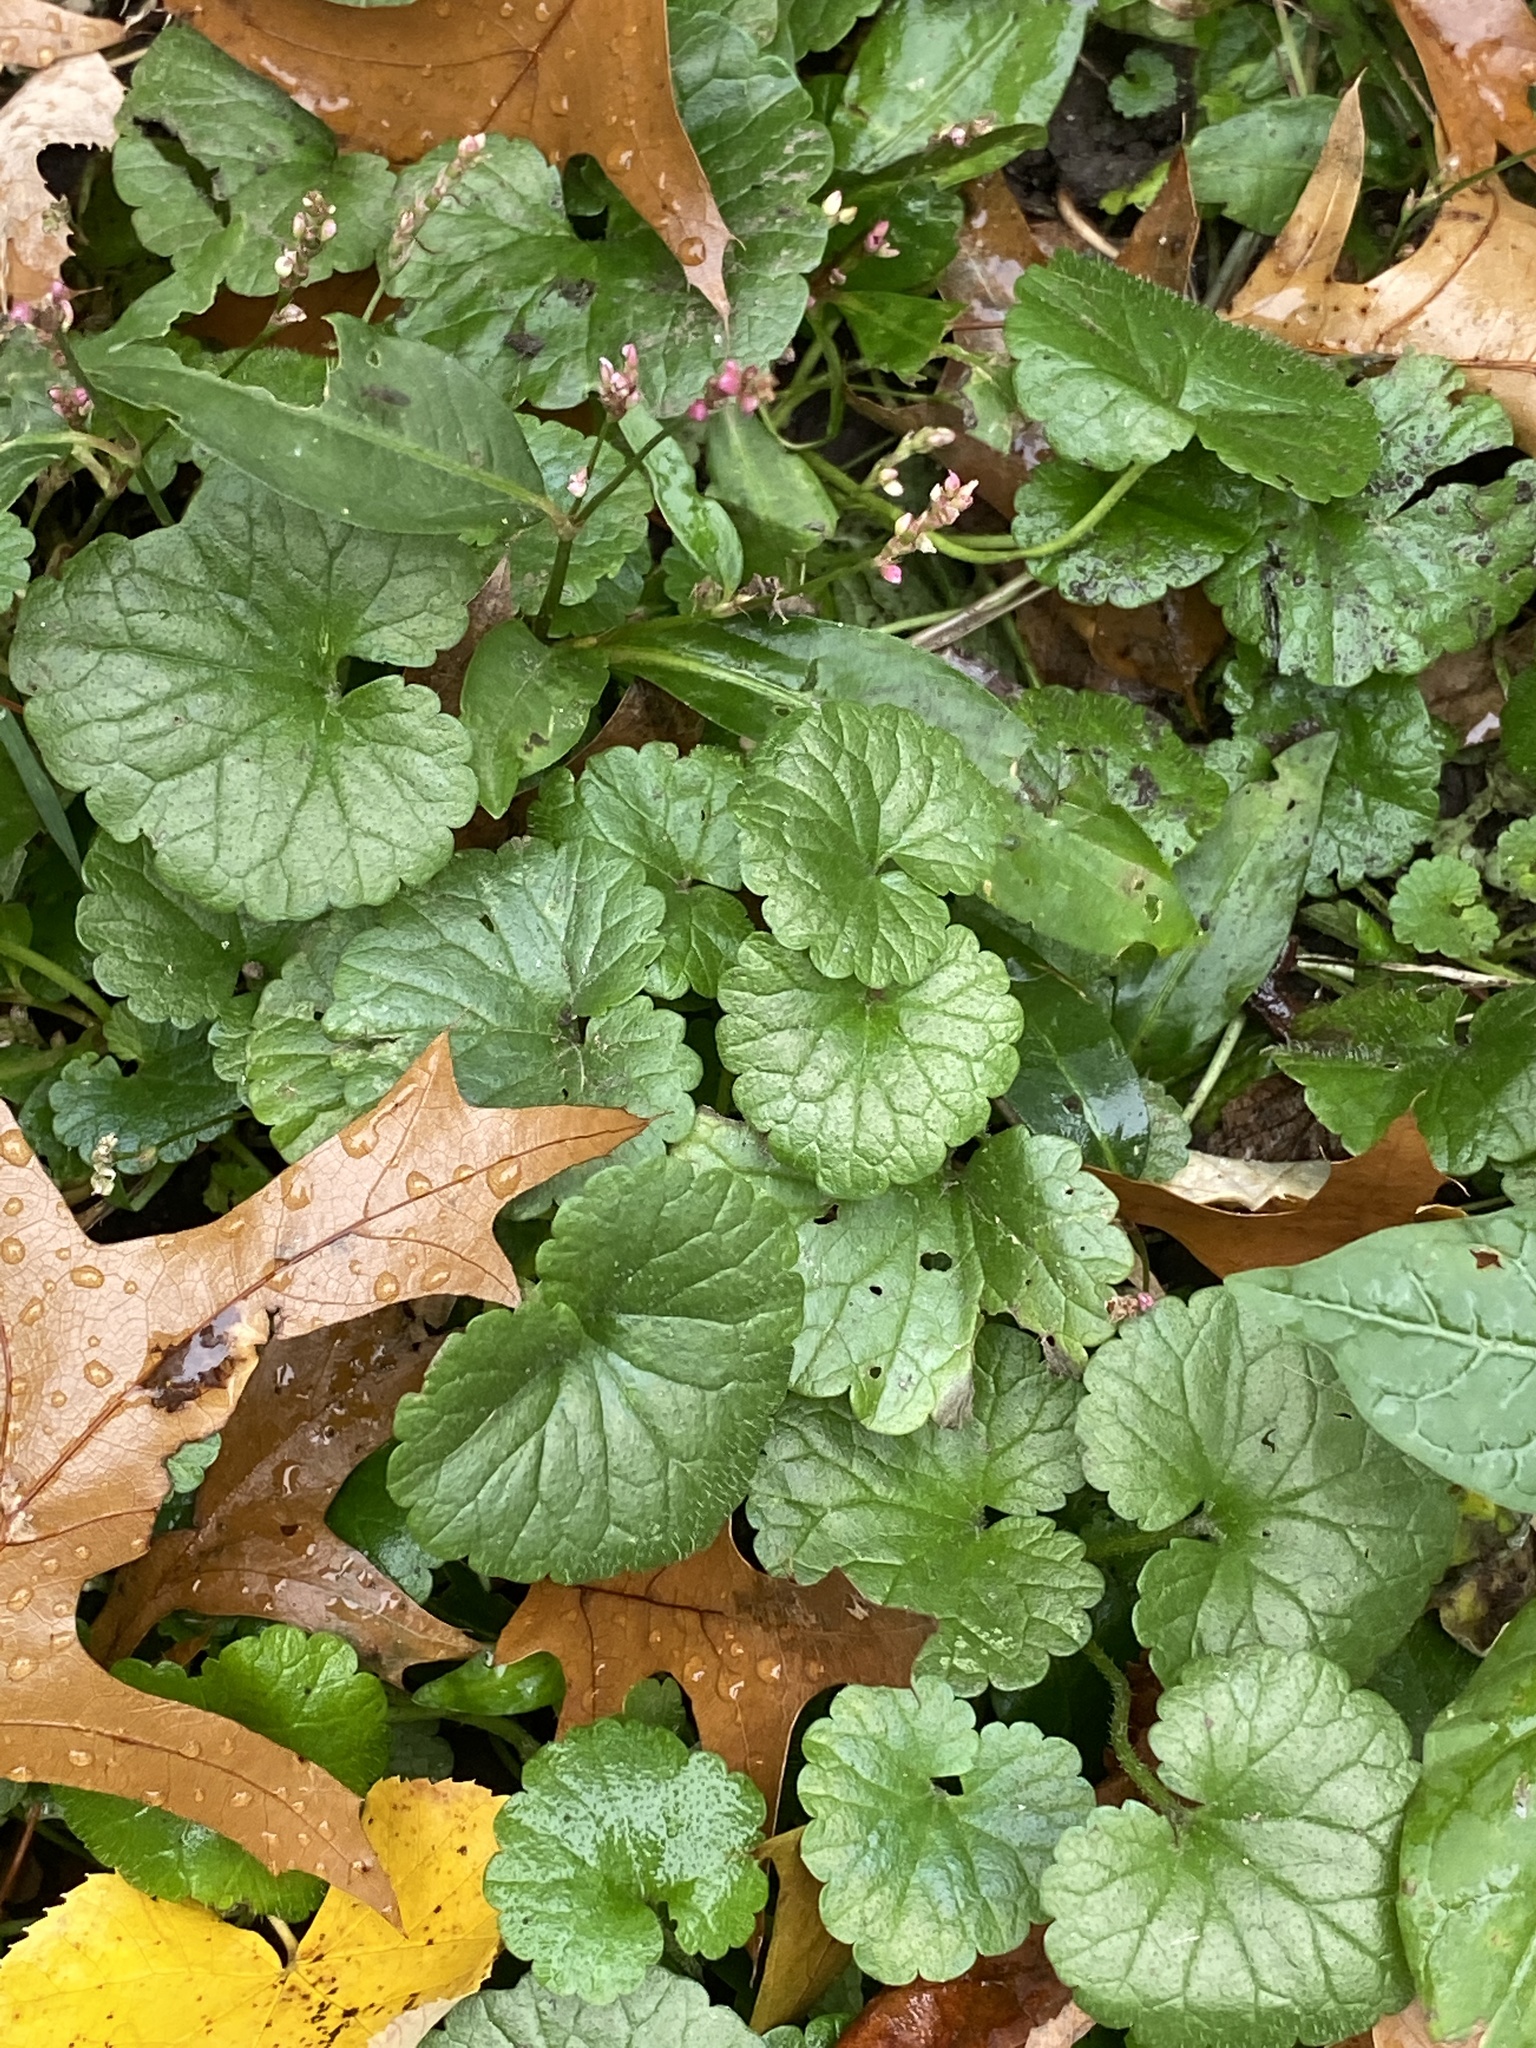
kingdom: Plantae
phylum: Tracheophyta
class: Magnoliopsida
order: Lamiales
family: Lamiaceae
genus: Glechoma
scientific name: Glechoma hederacea
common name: Ground ivy
